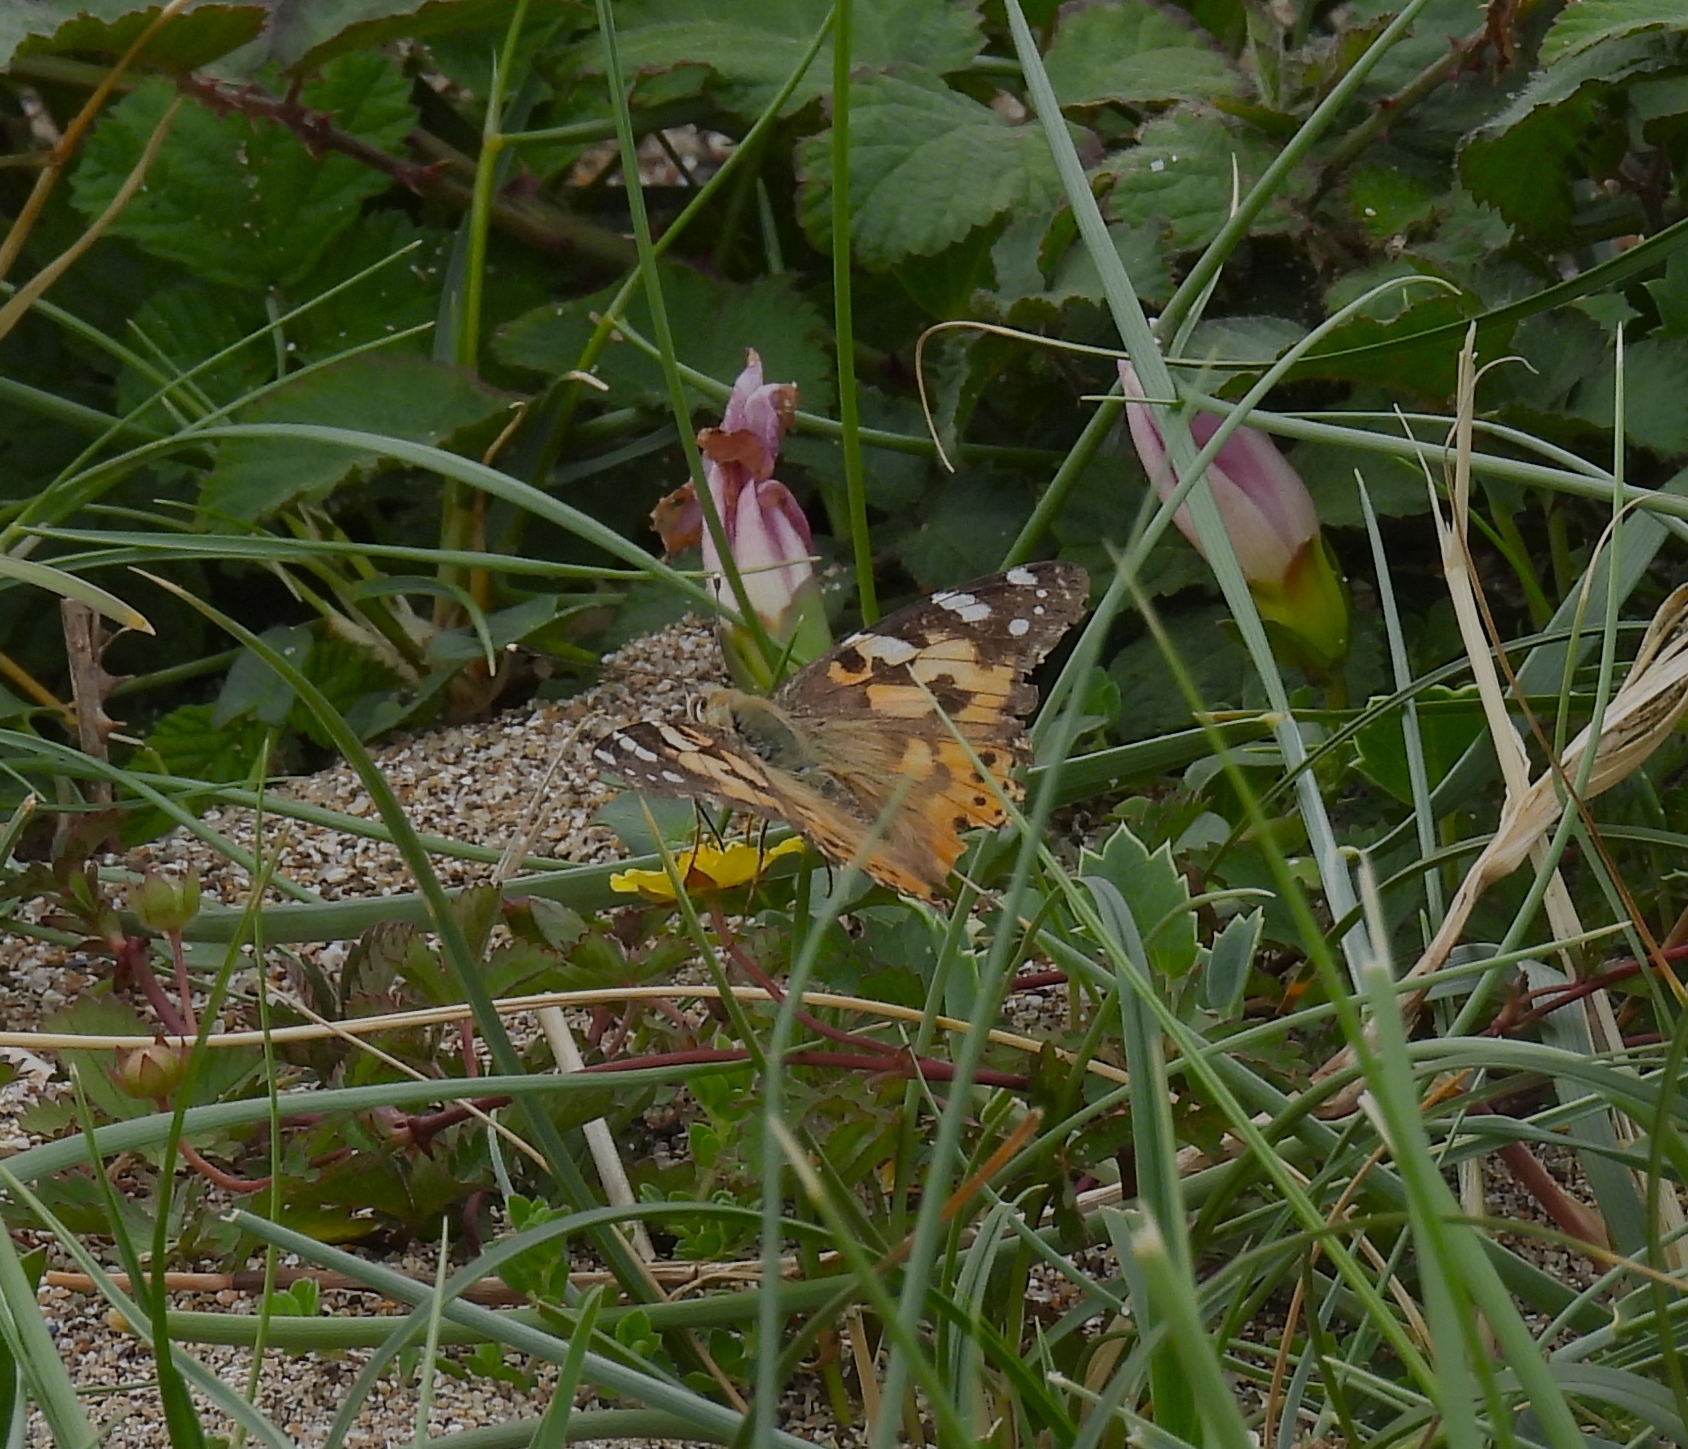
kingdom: Animalia
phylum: Arthropoda
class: Insecta
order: Lepidoptera
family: Nymphalidae
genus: Vanessa
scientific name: Vanessa cardui
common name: Painted lady
